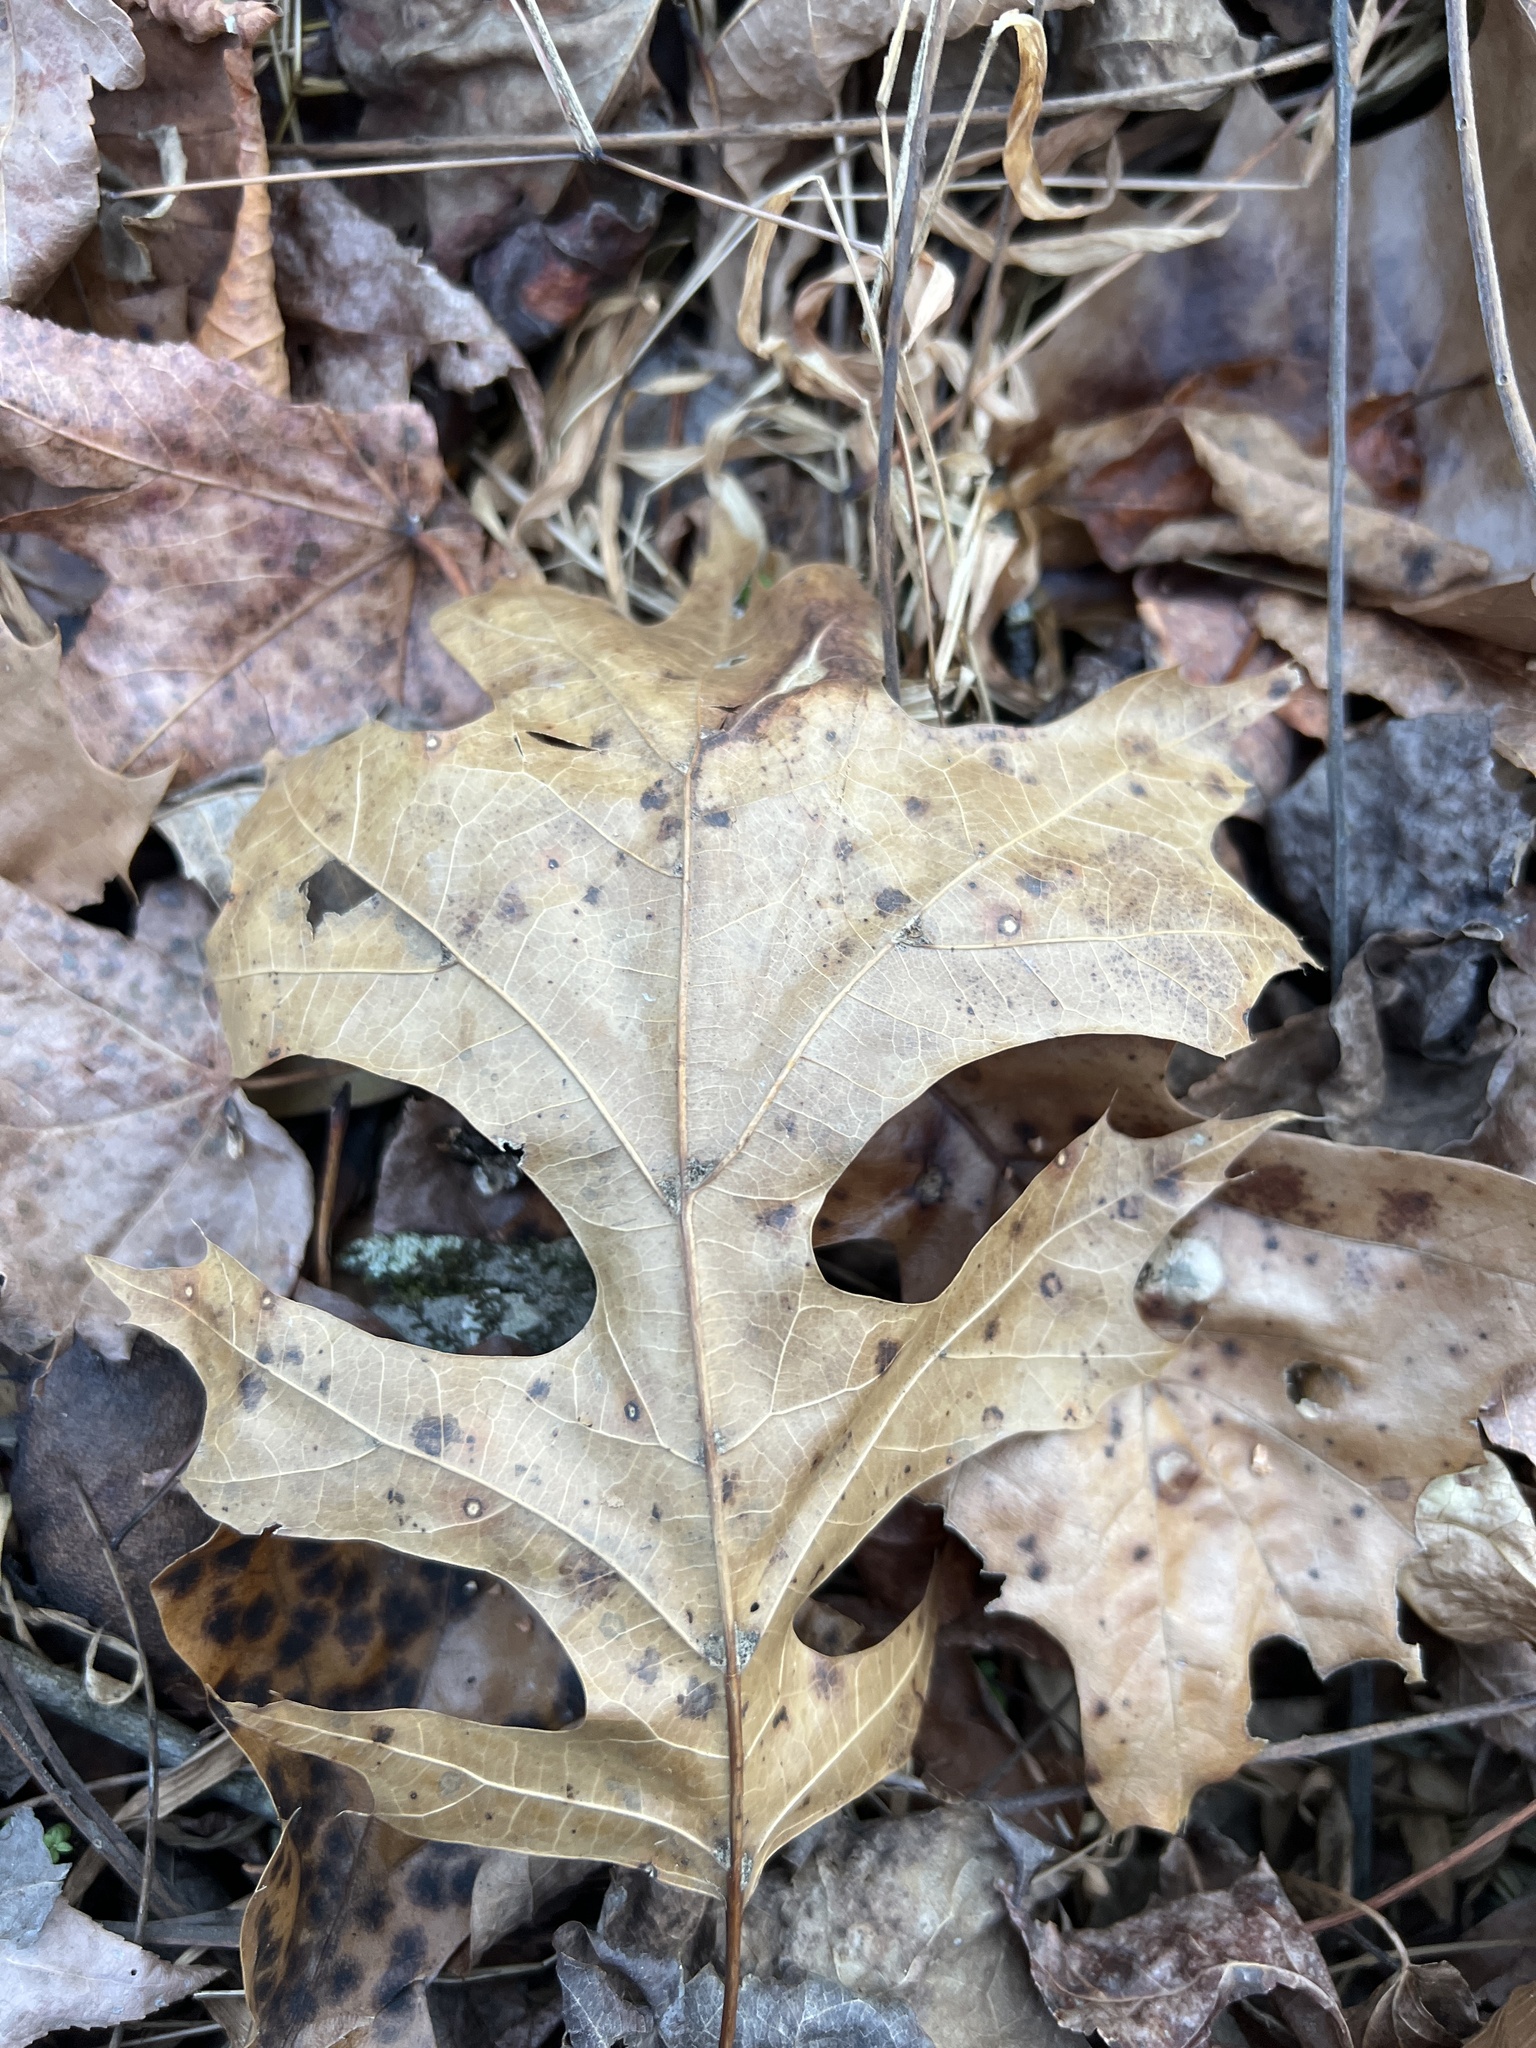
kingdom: Plantae
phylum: Tracheophyta
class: Magnoliopsida
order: Fagales
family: Fagaceae
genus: Quercus
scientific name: Quercus shumardii
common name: Shumard oak
